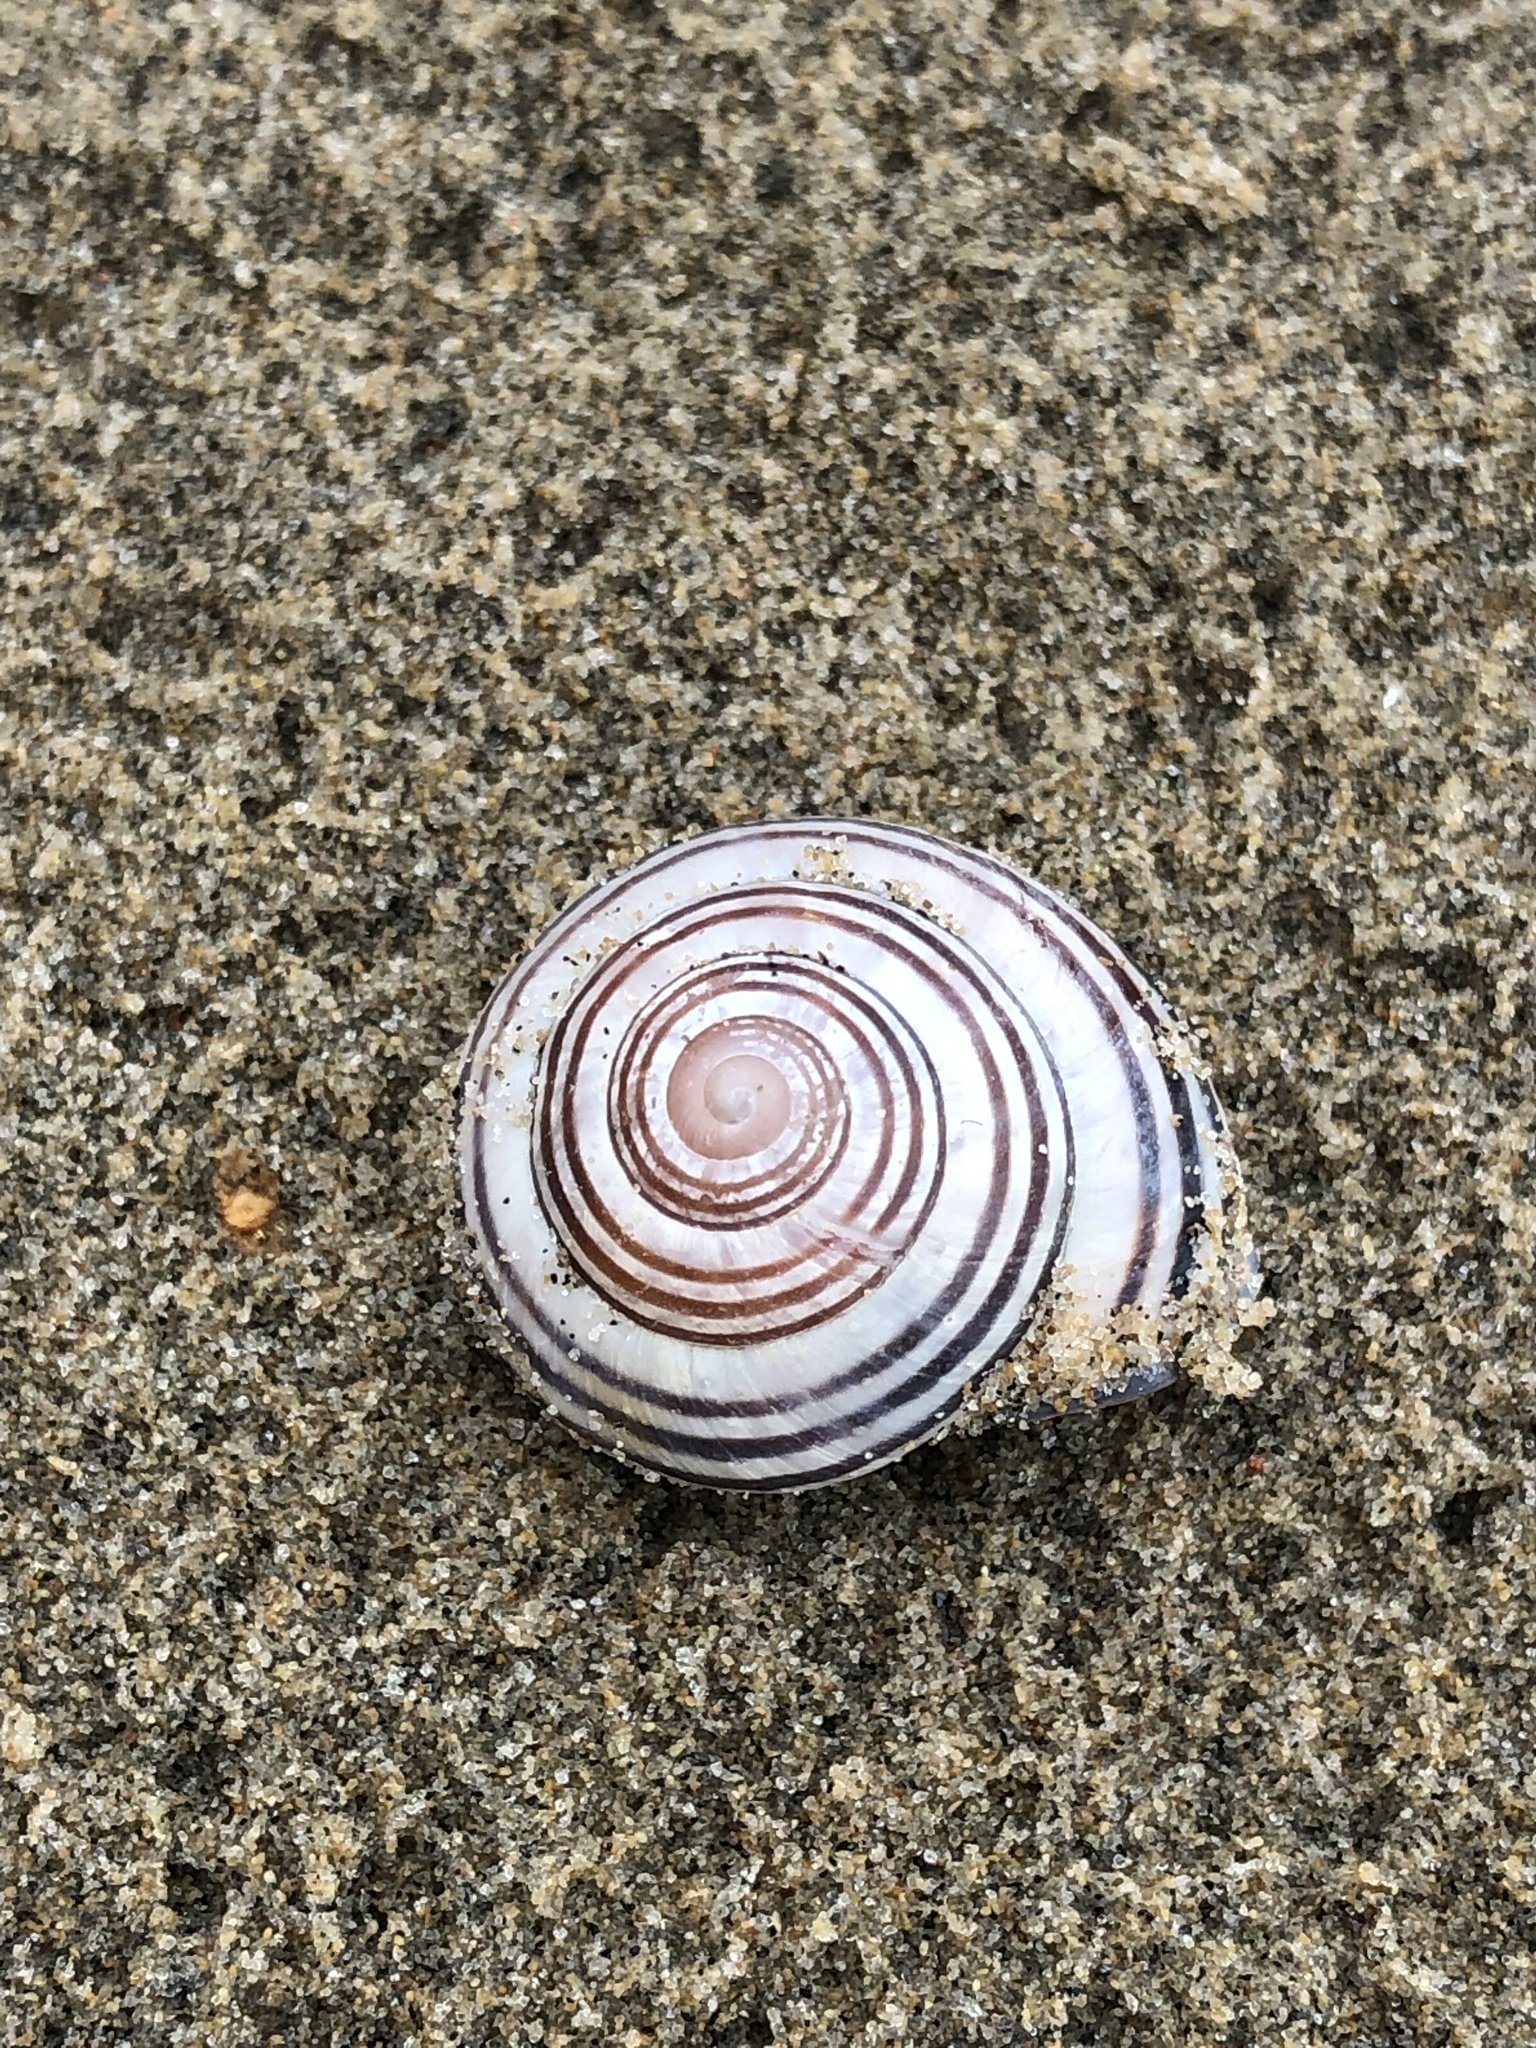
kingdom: Animalia
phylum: Mollusca
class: Gastropoda
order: Stylommatophora
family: Helicidae
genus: Cepaea
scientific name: Cepaea nemoralis
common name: Grovesnail
